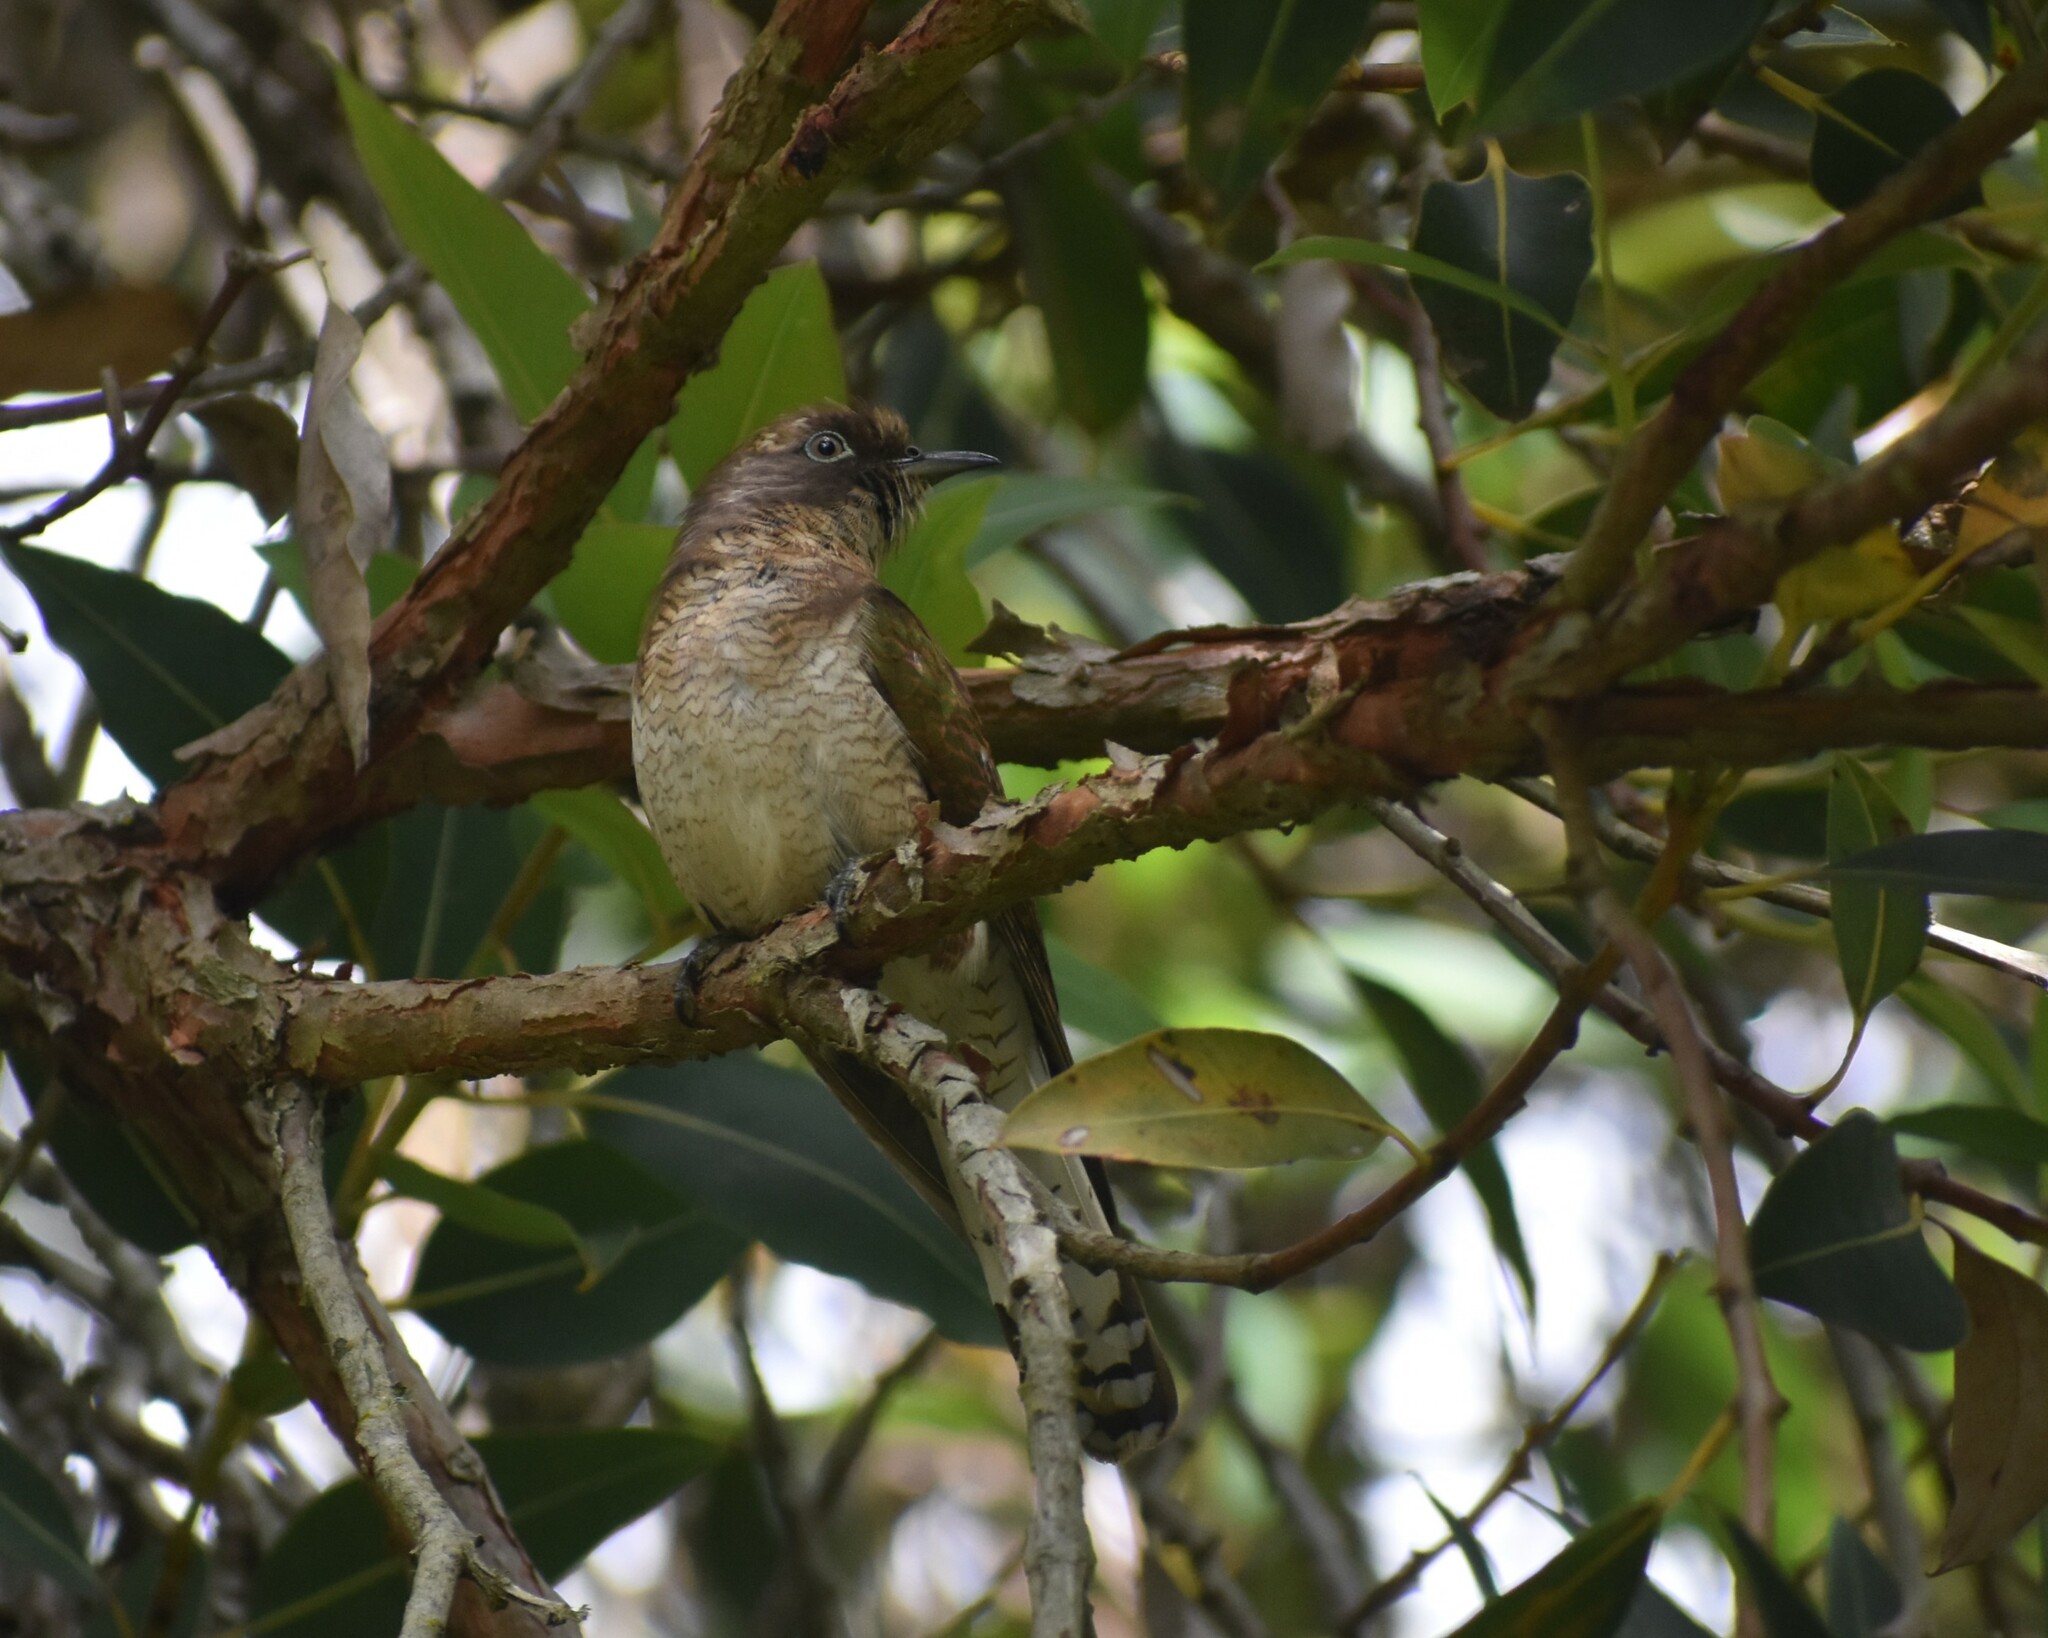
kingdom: Animalia
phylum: Chordata
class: Aves
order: Cuculiformes
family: Cuculidae
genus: Chrysococcyx
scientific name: Chrysococcyx klaas
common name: Klaas's cuckoo
